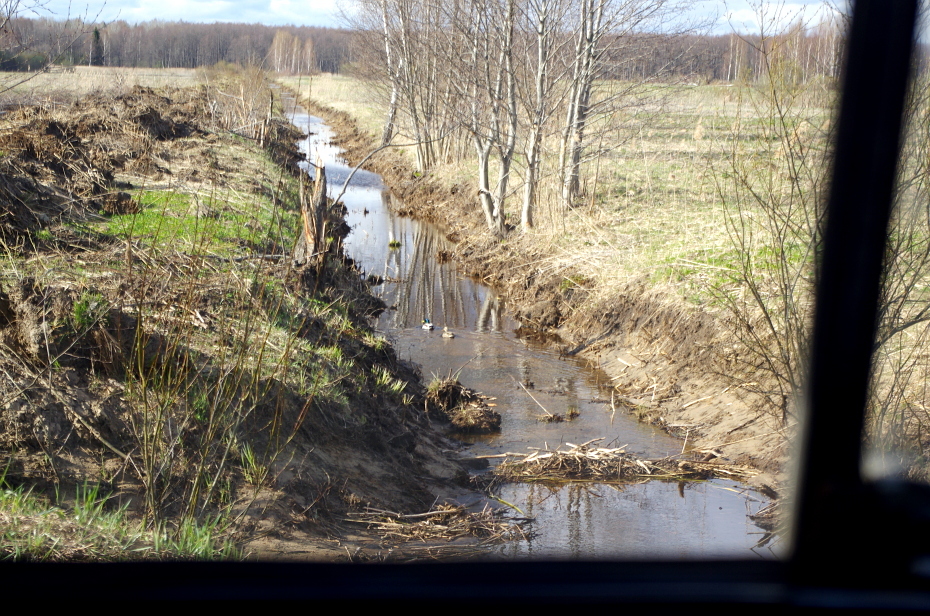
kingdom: Animalia
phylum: Chordata
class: Mammalia
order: Rodentia
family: Castoridae
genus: Castor
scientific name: Castor fiber
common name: Eurasian beaver
